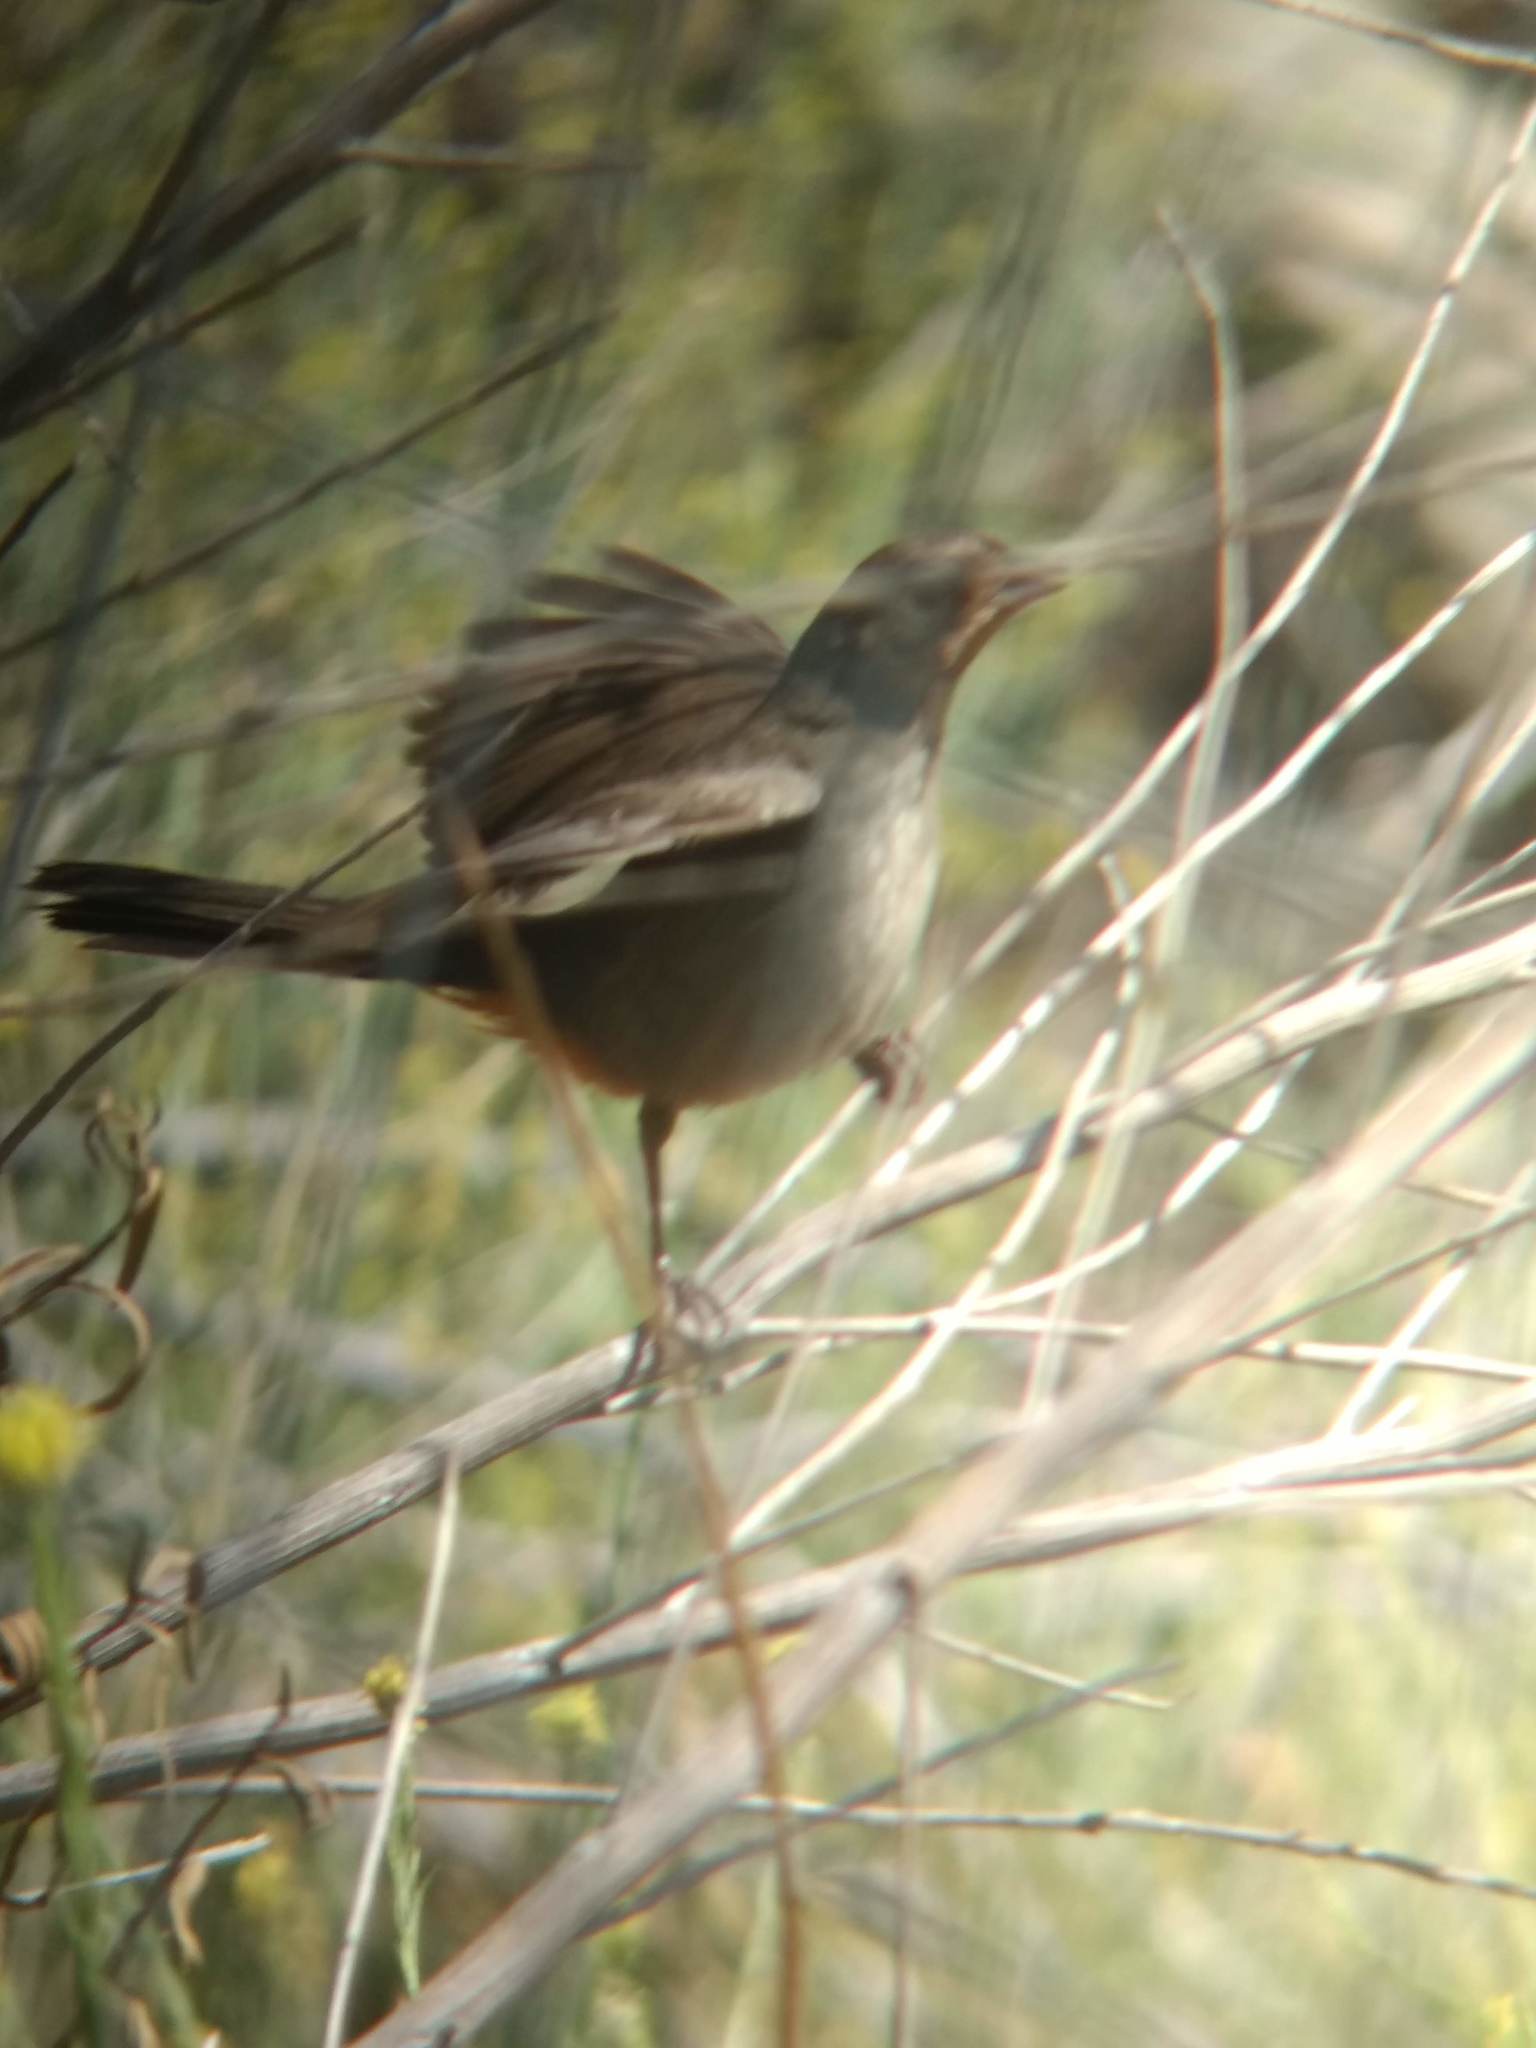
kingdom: Animalia
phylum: Chordata
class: Aves
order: Passeriformes
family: Passerellidae
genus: Melozone
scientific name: Melozone crissalis
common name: California towhee
